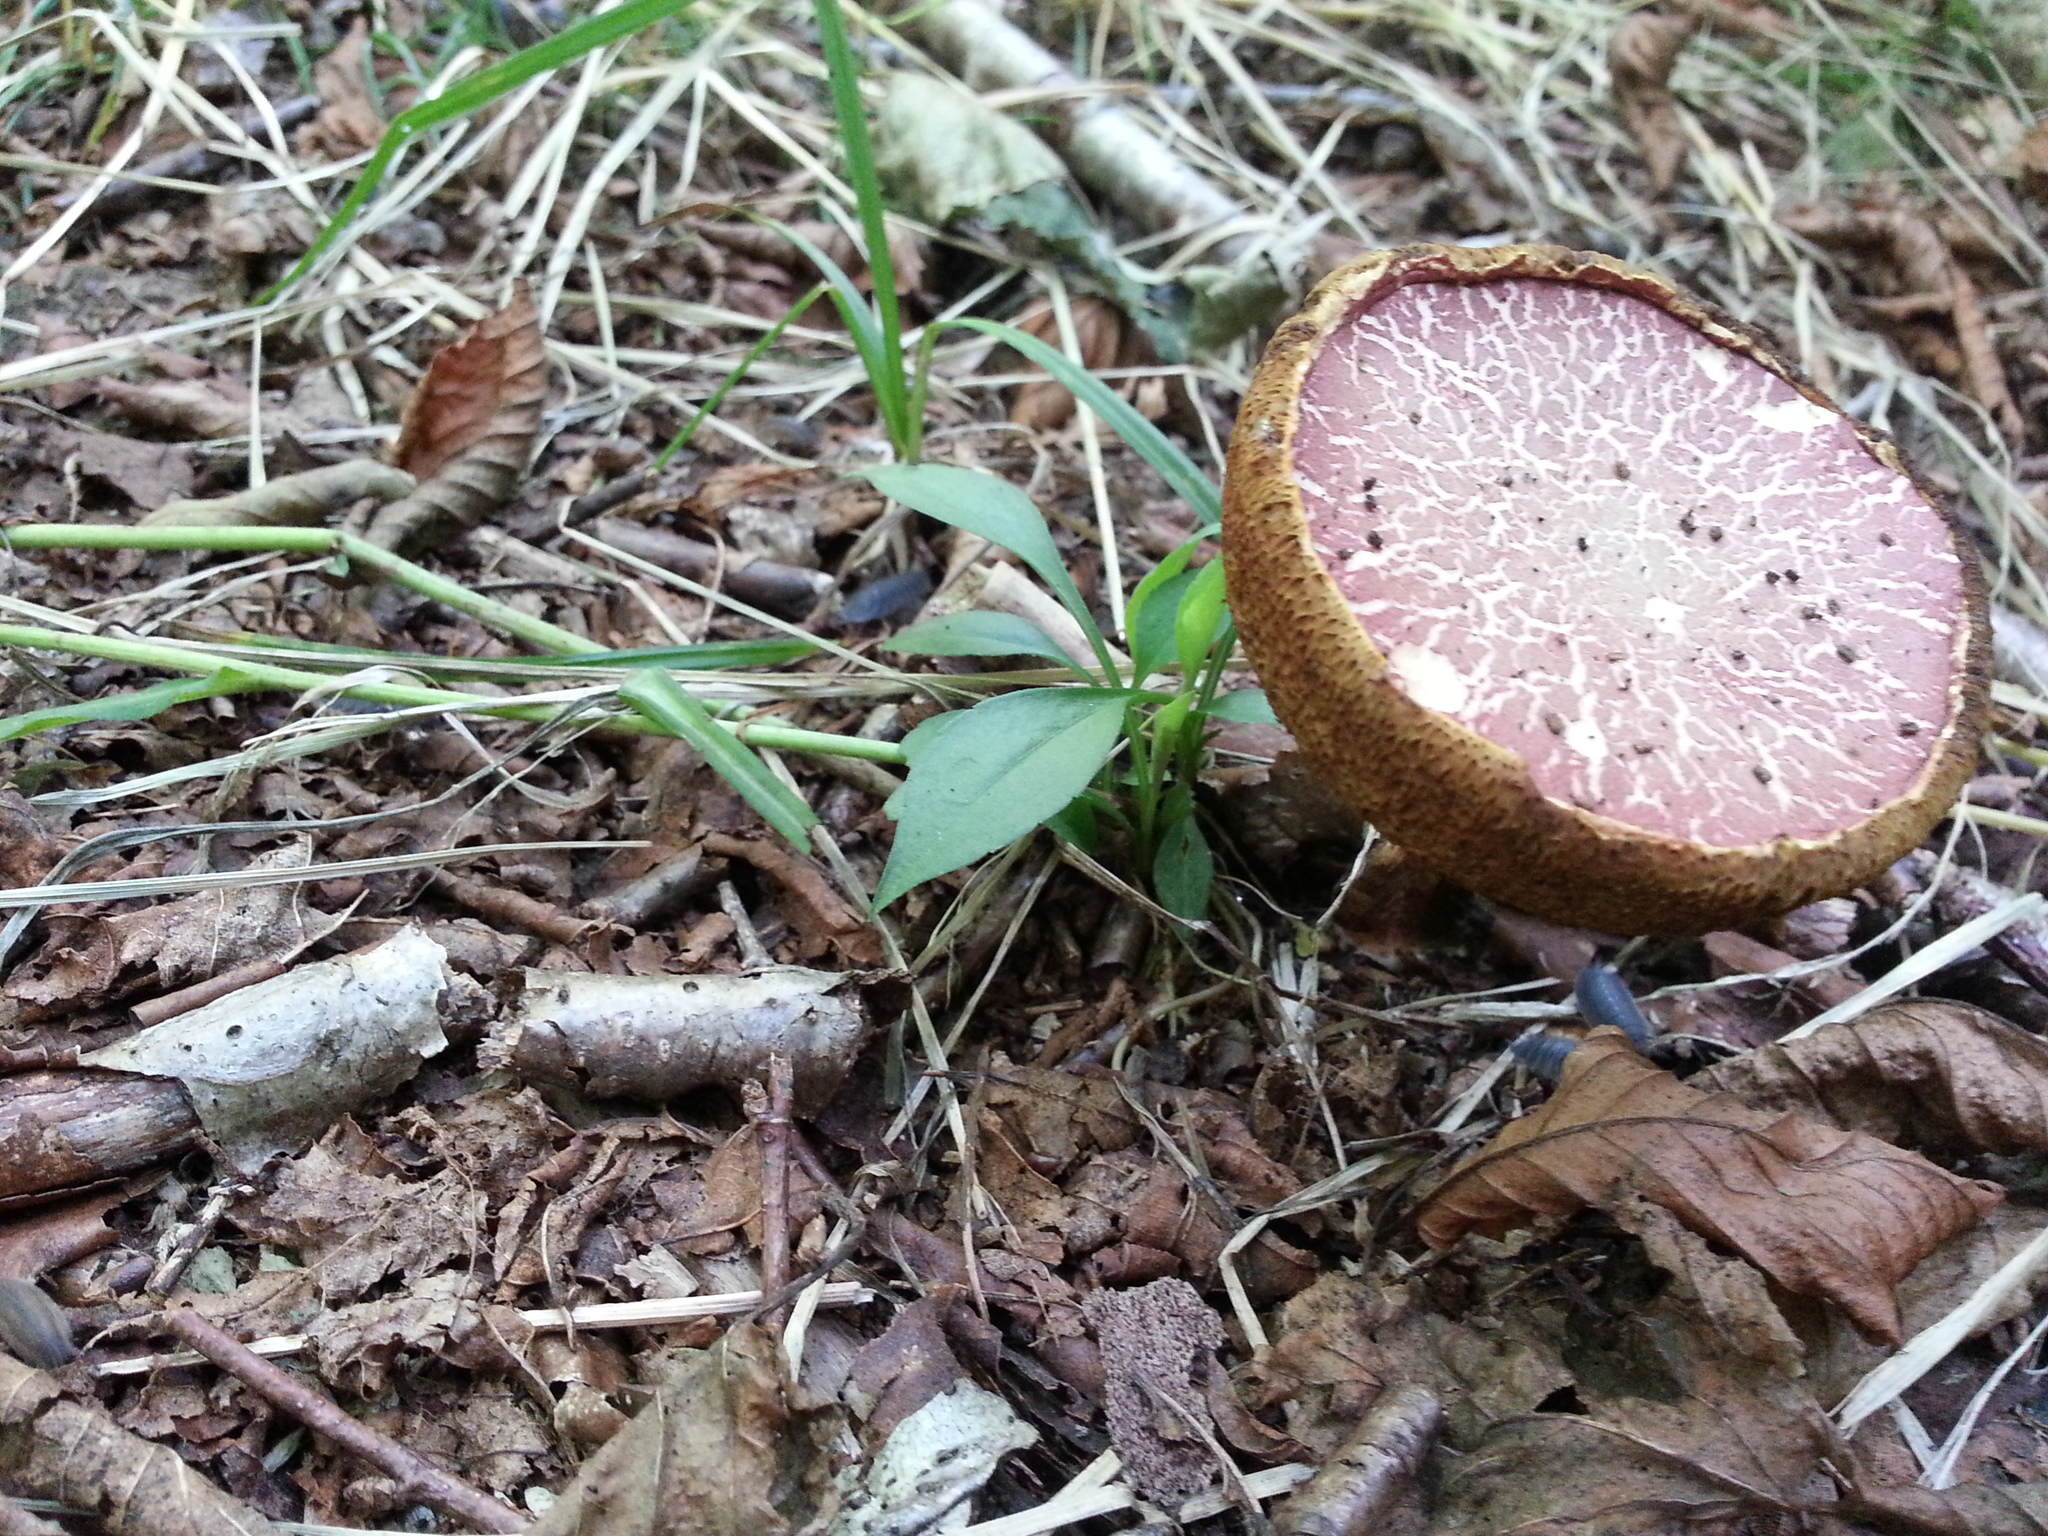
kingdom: Fungi
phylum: Basidiomycota
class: Agaricomycetes
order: Boletales
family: Boletaceae
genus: Xerocomellus
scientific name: Xerocomellus chrysenteron
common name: Red-cracking bolete
